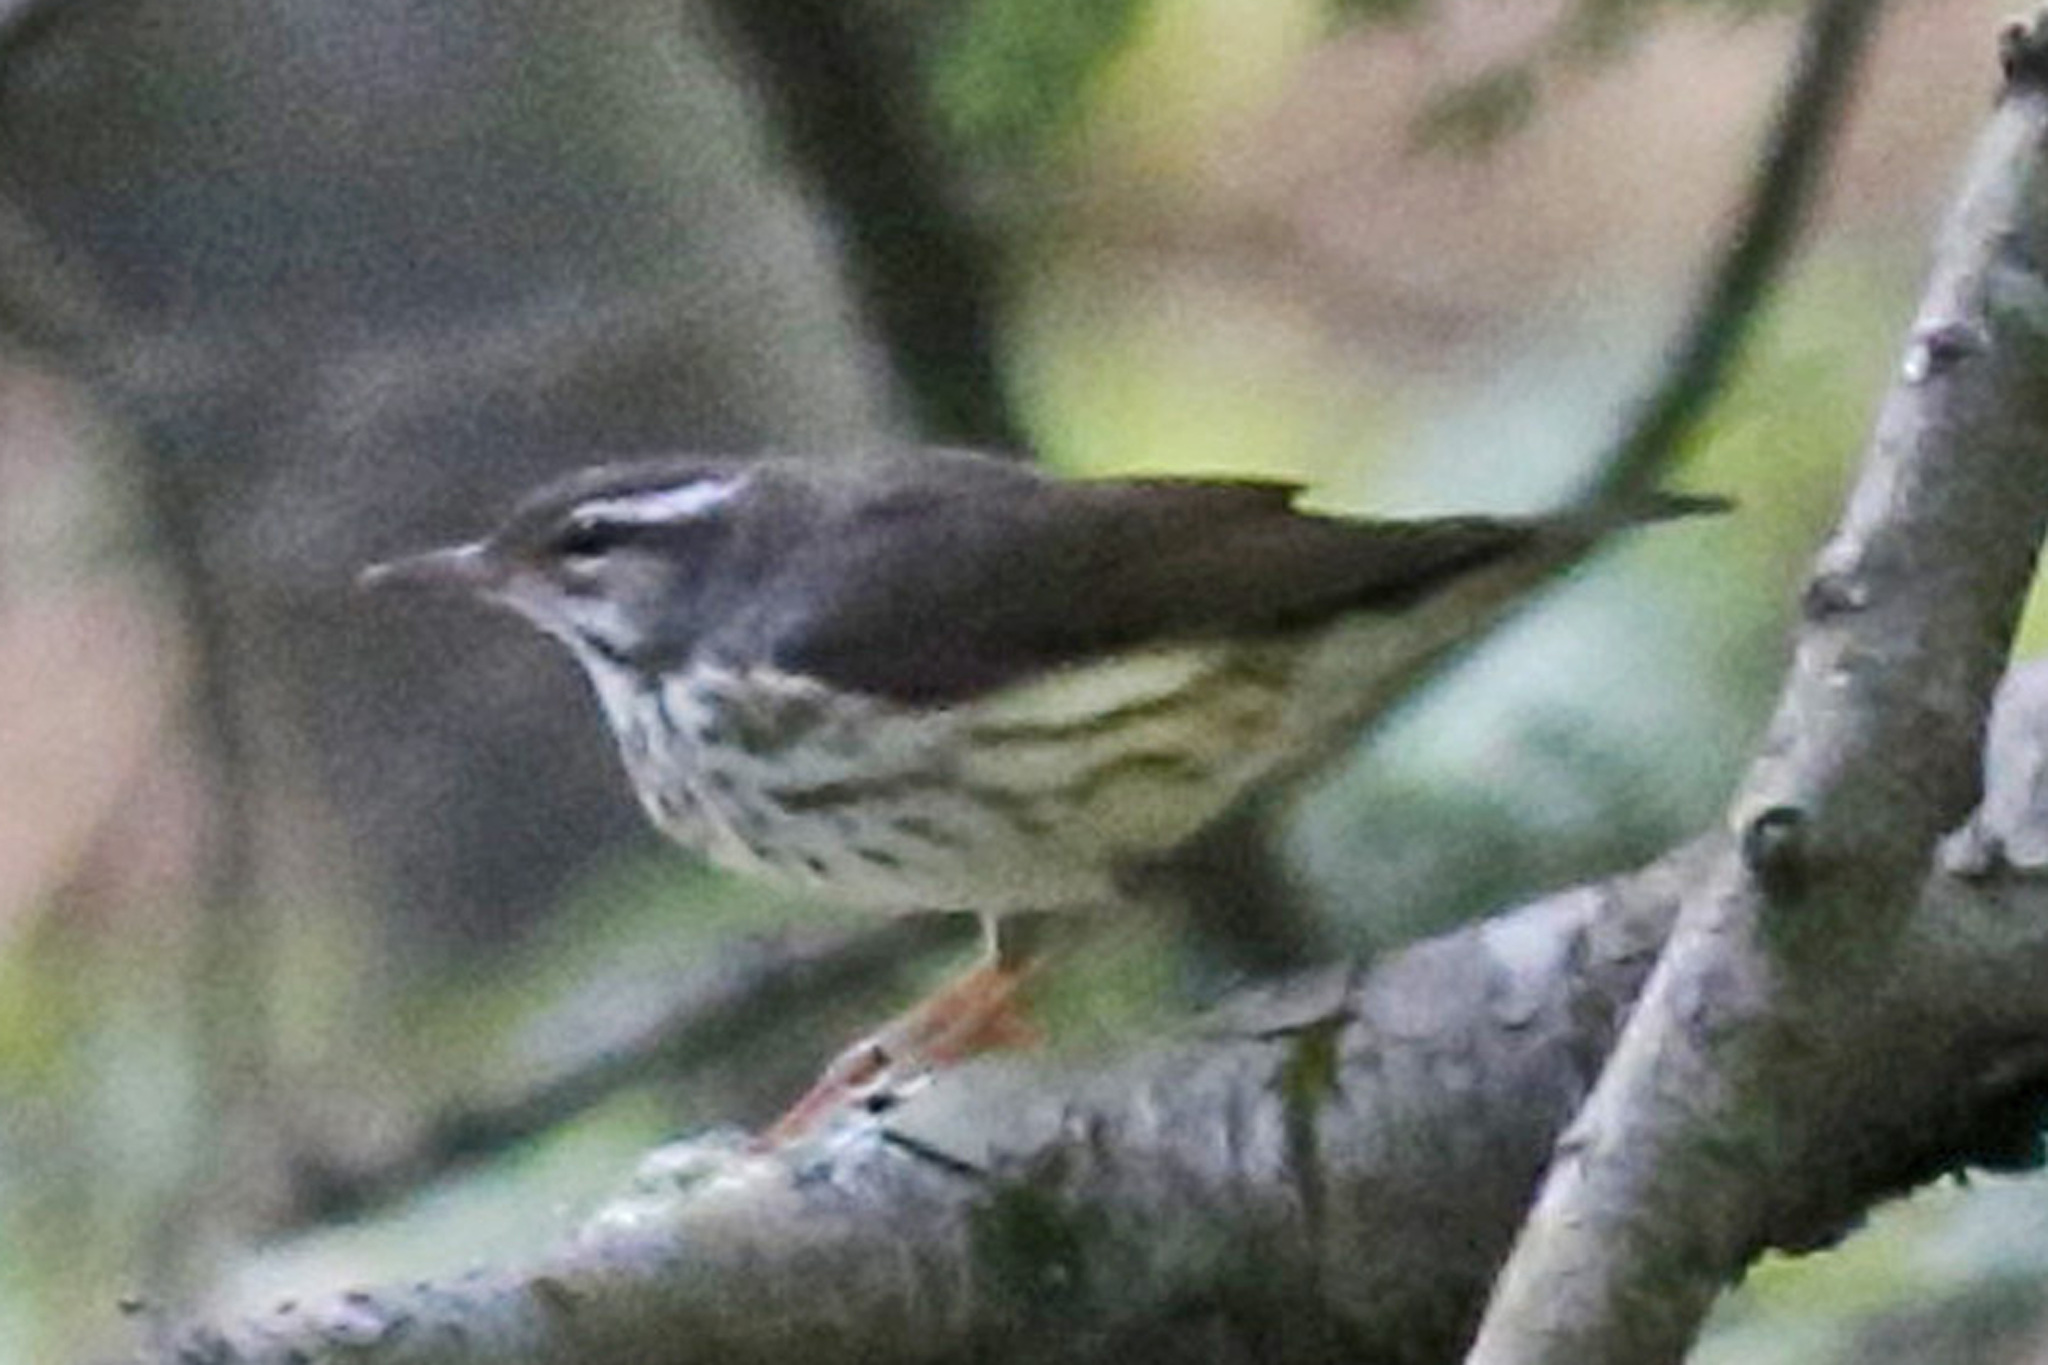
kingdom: Animalia
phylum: Chordata
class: Aves
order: Passeriformes
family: Parulidae
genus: Parkesia
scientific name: Parkesia motacilla
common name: Louisiana waterthrush
